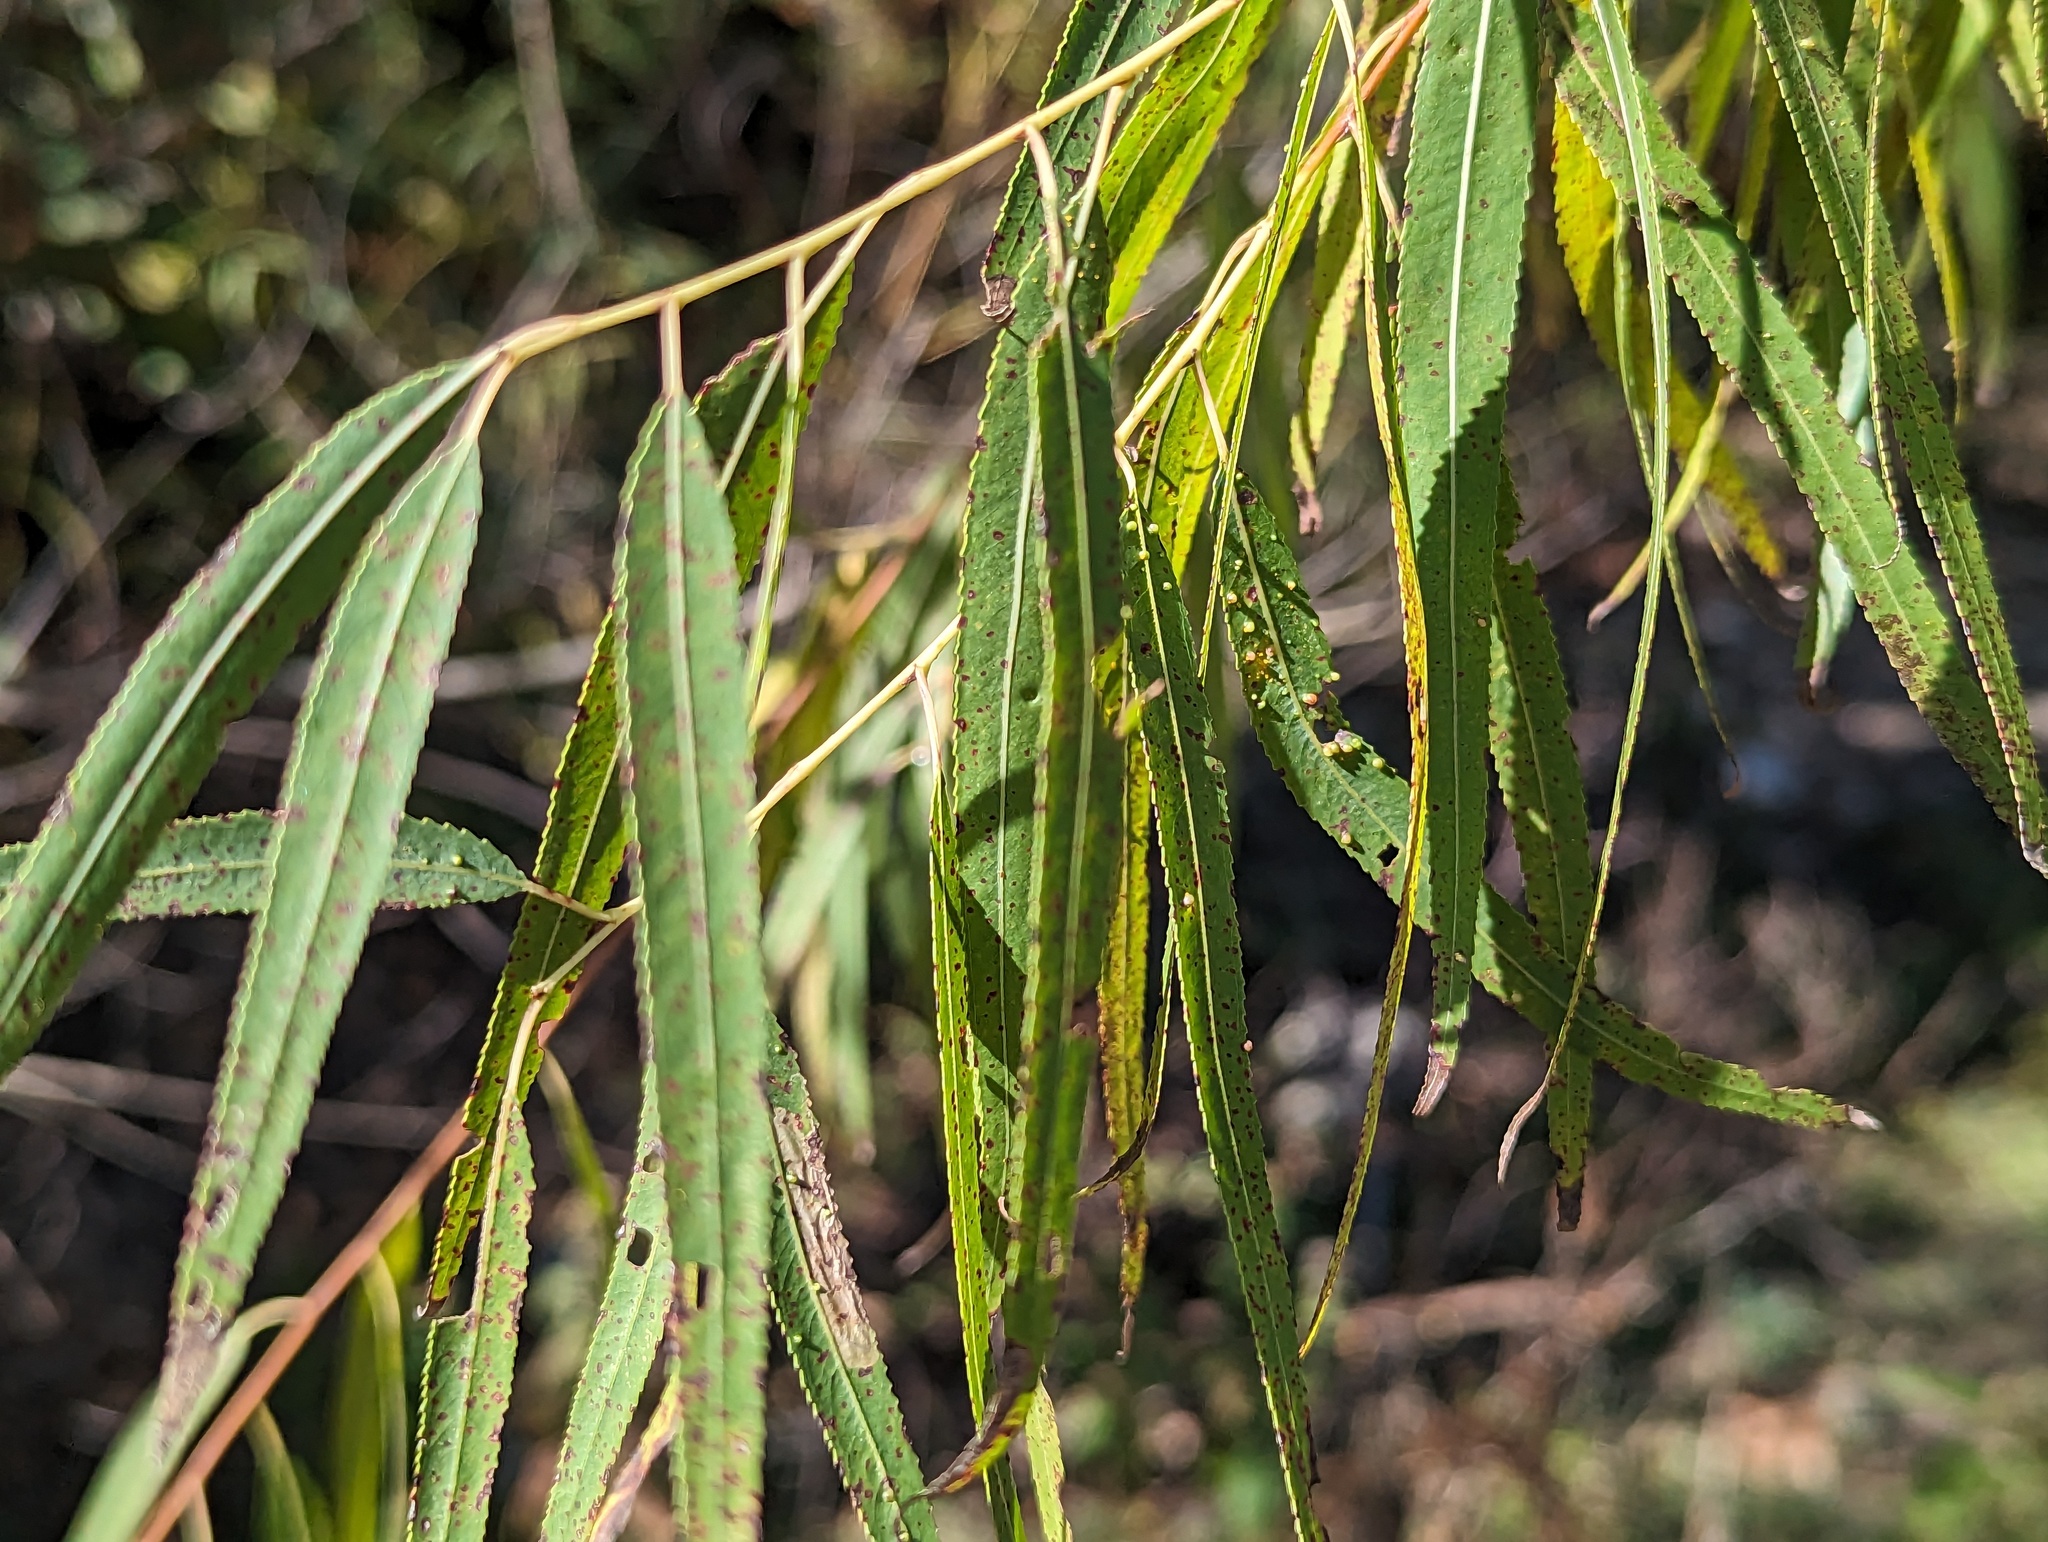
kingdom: Plantae
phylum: Tracheophyta
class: Magnoliopsida
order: Malpighiales
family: Salicaceae
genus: Salix
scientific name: Salix nigra
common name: Black willow
